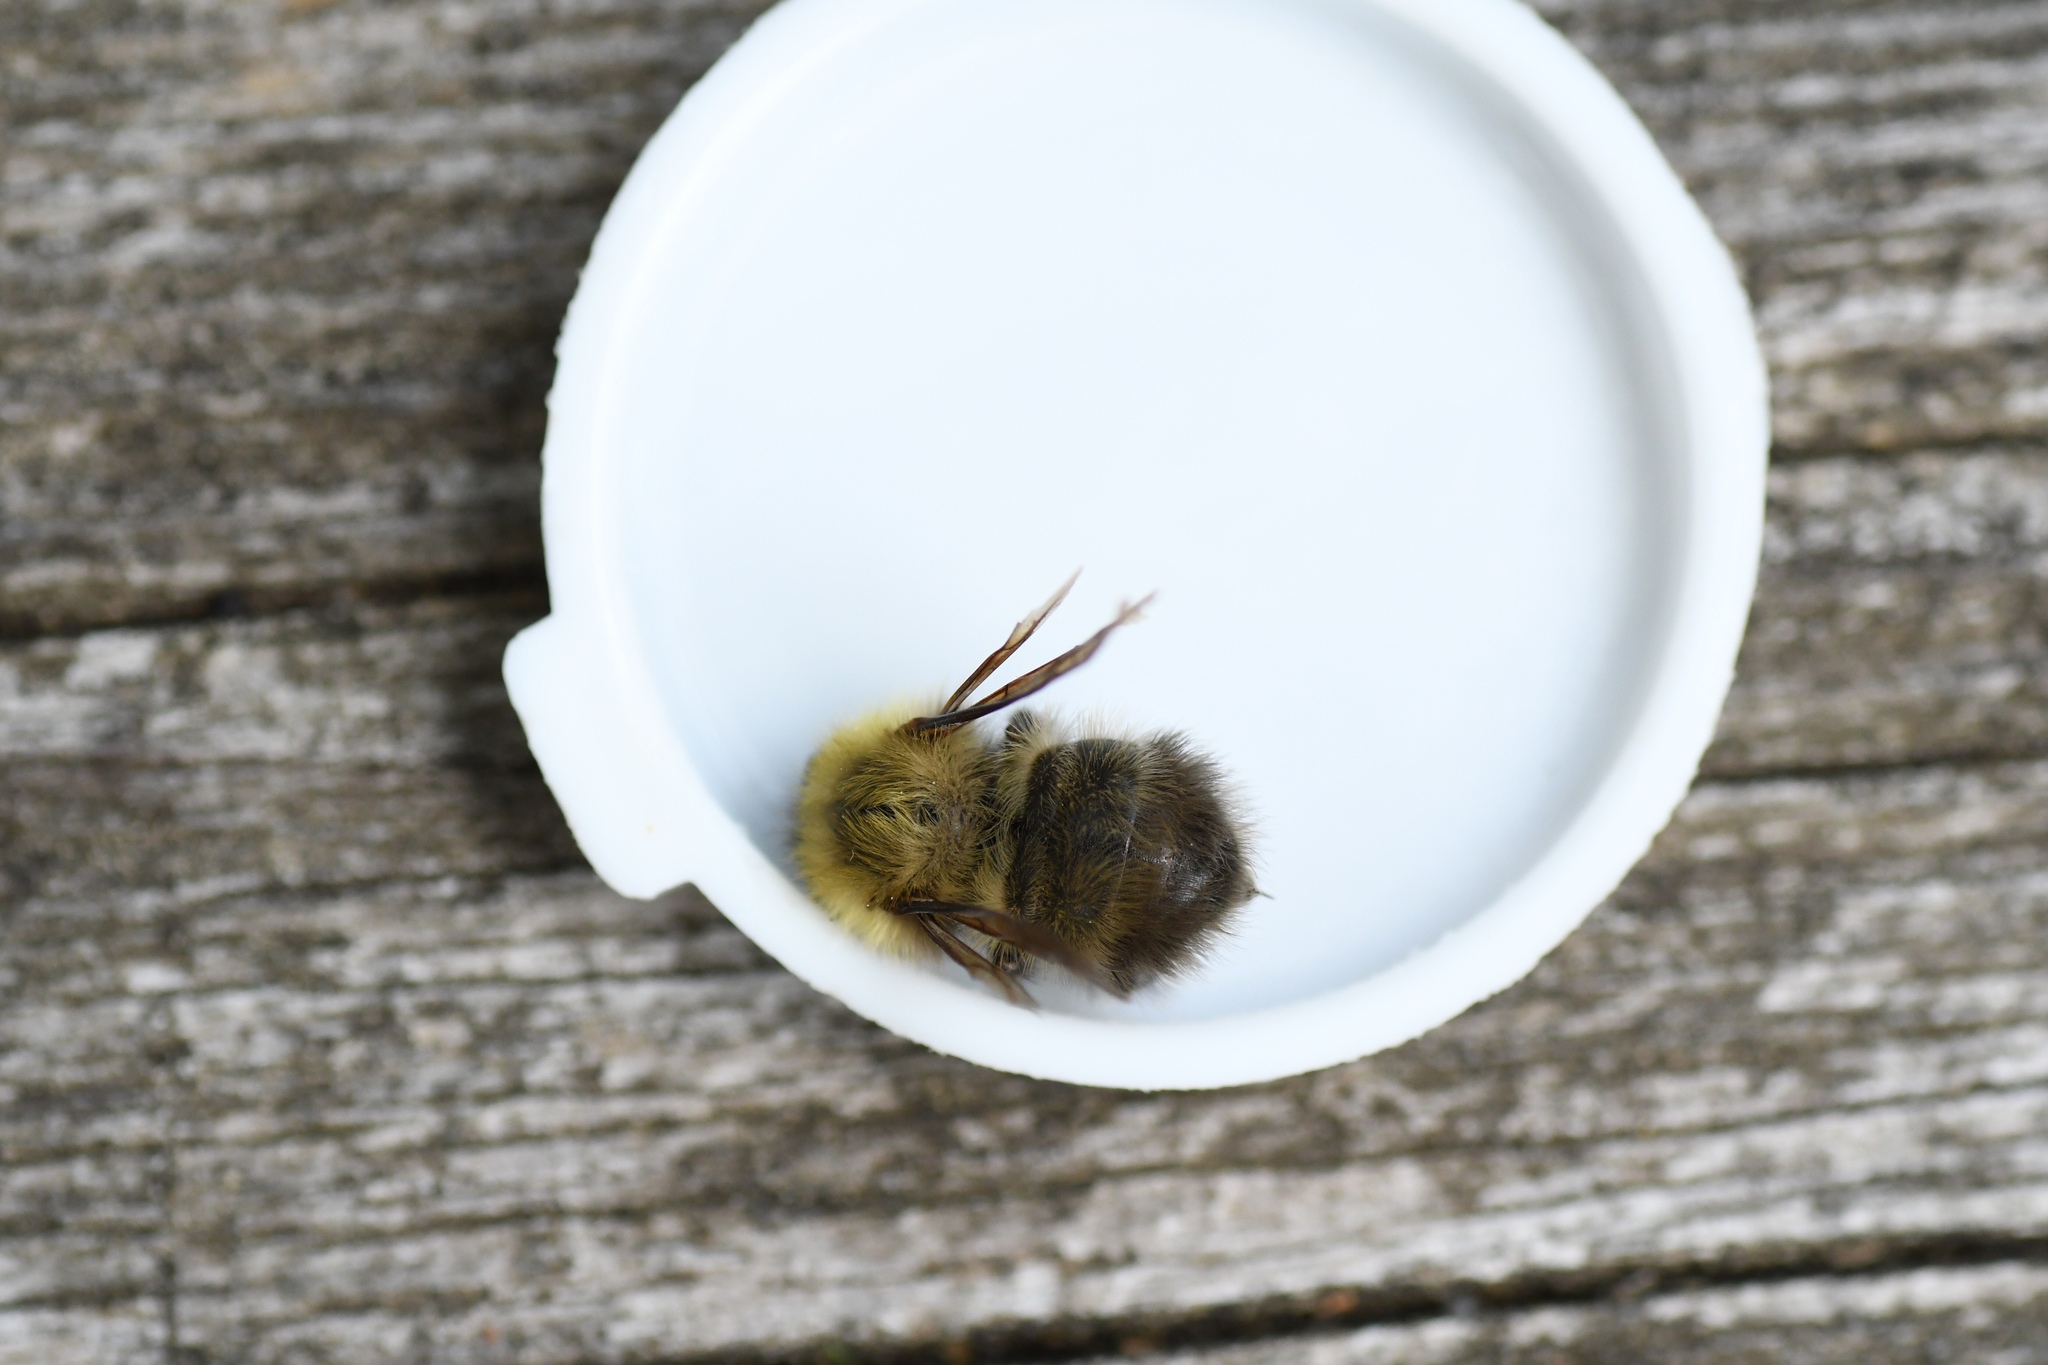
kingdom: Animalia
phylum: Arthropoda
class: Insecta
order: Hymenoptera
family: Apidae
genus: Bombus
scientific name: Bombus perplexus
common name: Confusing bumble bee
